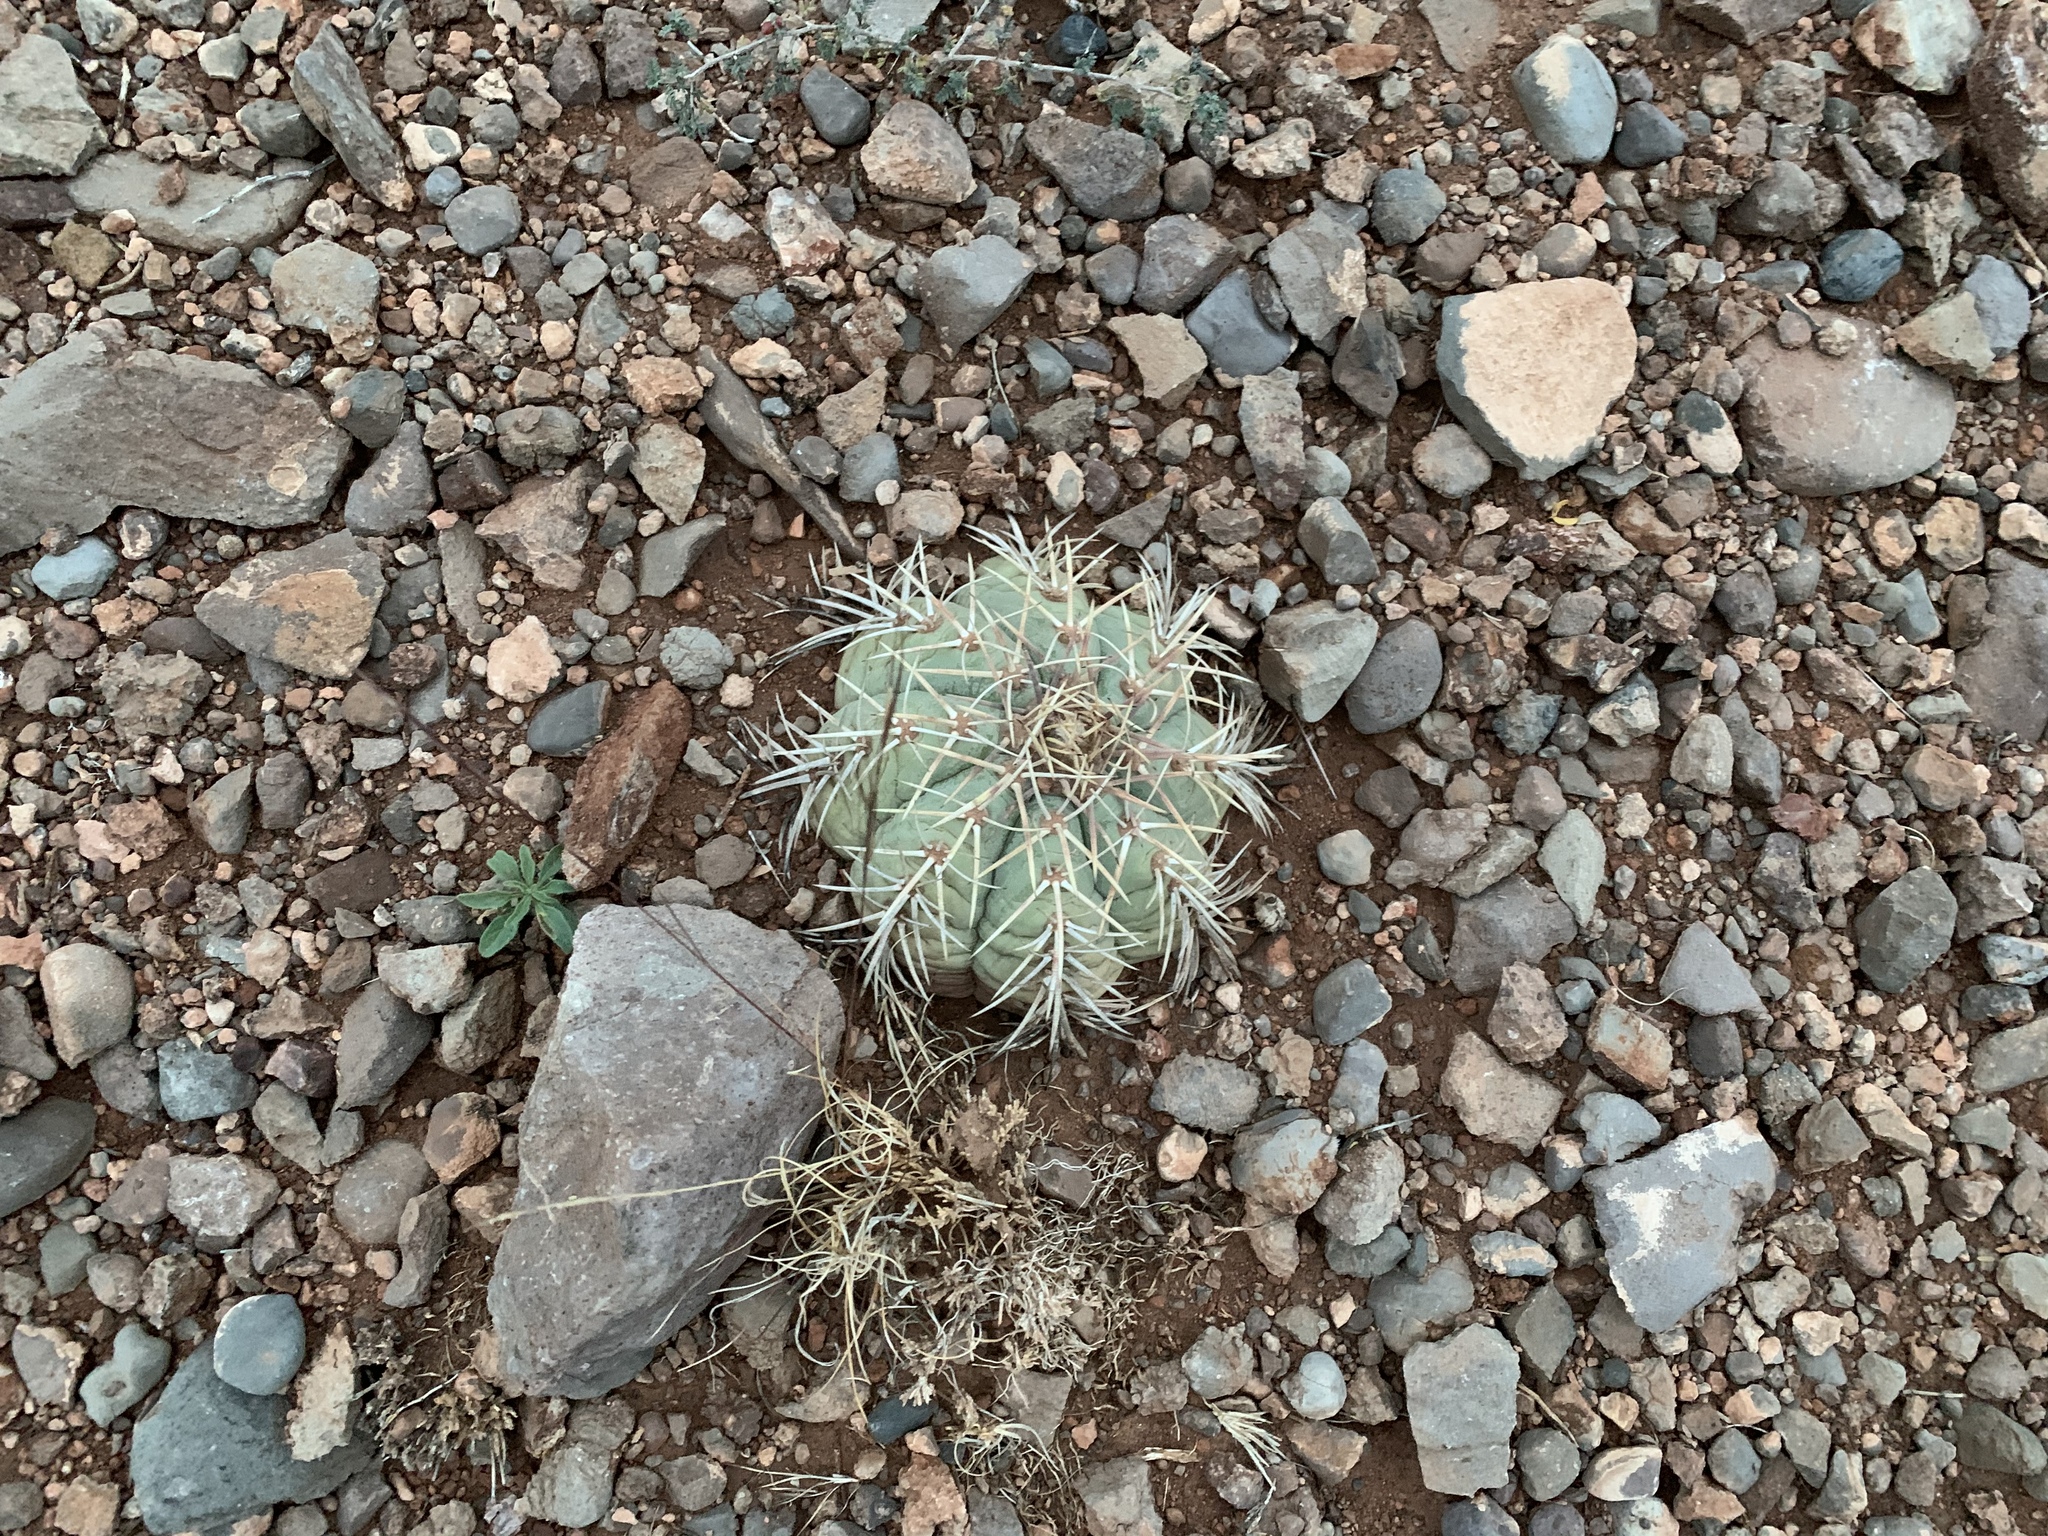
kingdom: Plantae
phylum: Tracheophyta
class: Magnoliopsida
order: Caryophyllales
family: Cactaceae
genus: Echinocactus
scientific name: Echinocactus horizonthalonius
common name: Devilshead
